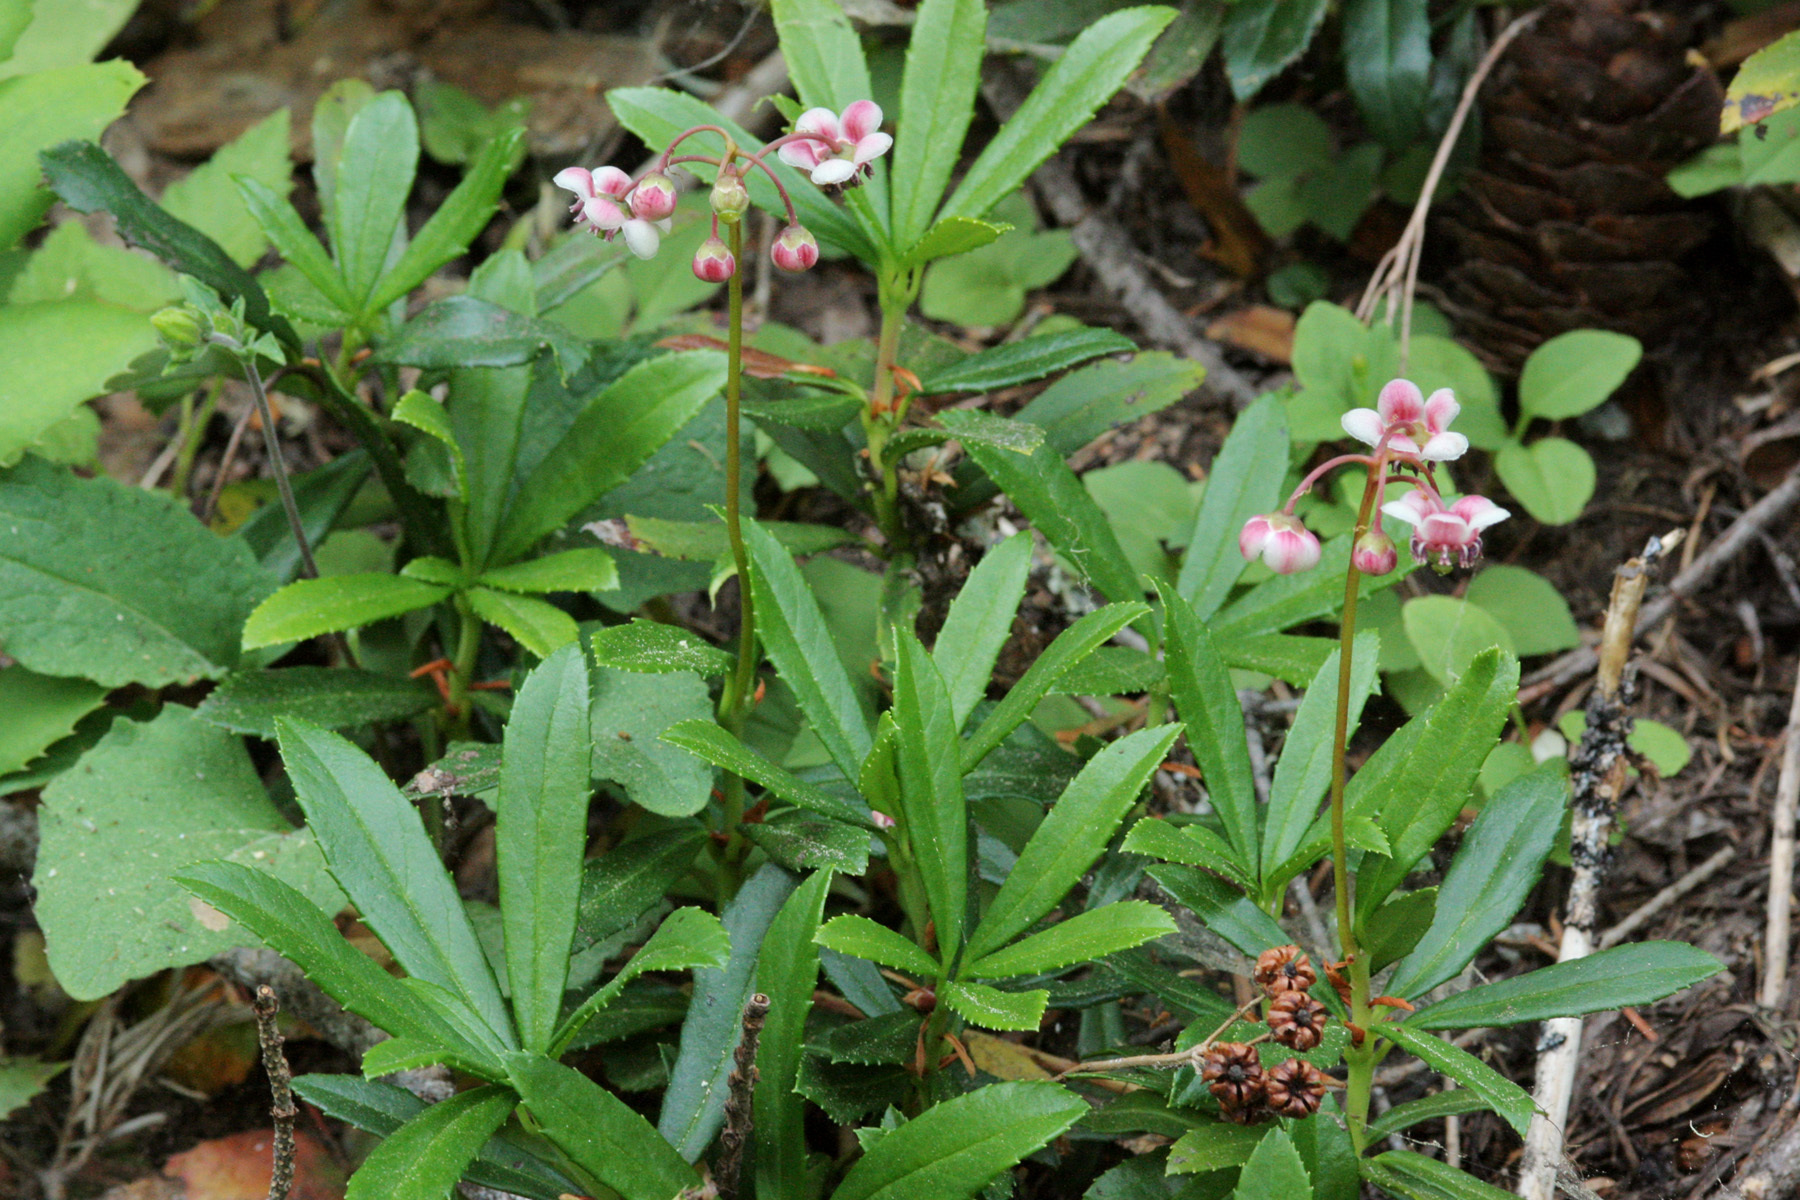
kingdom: Plantae
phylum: Tracheophyta
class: Magnoliopsida
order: Ericales
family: Ericaceae
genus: Chimaphila
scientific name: Chimaphila umbellata
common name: Pipsissewa
